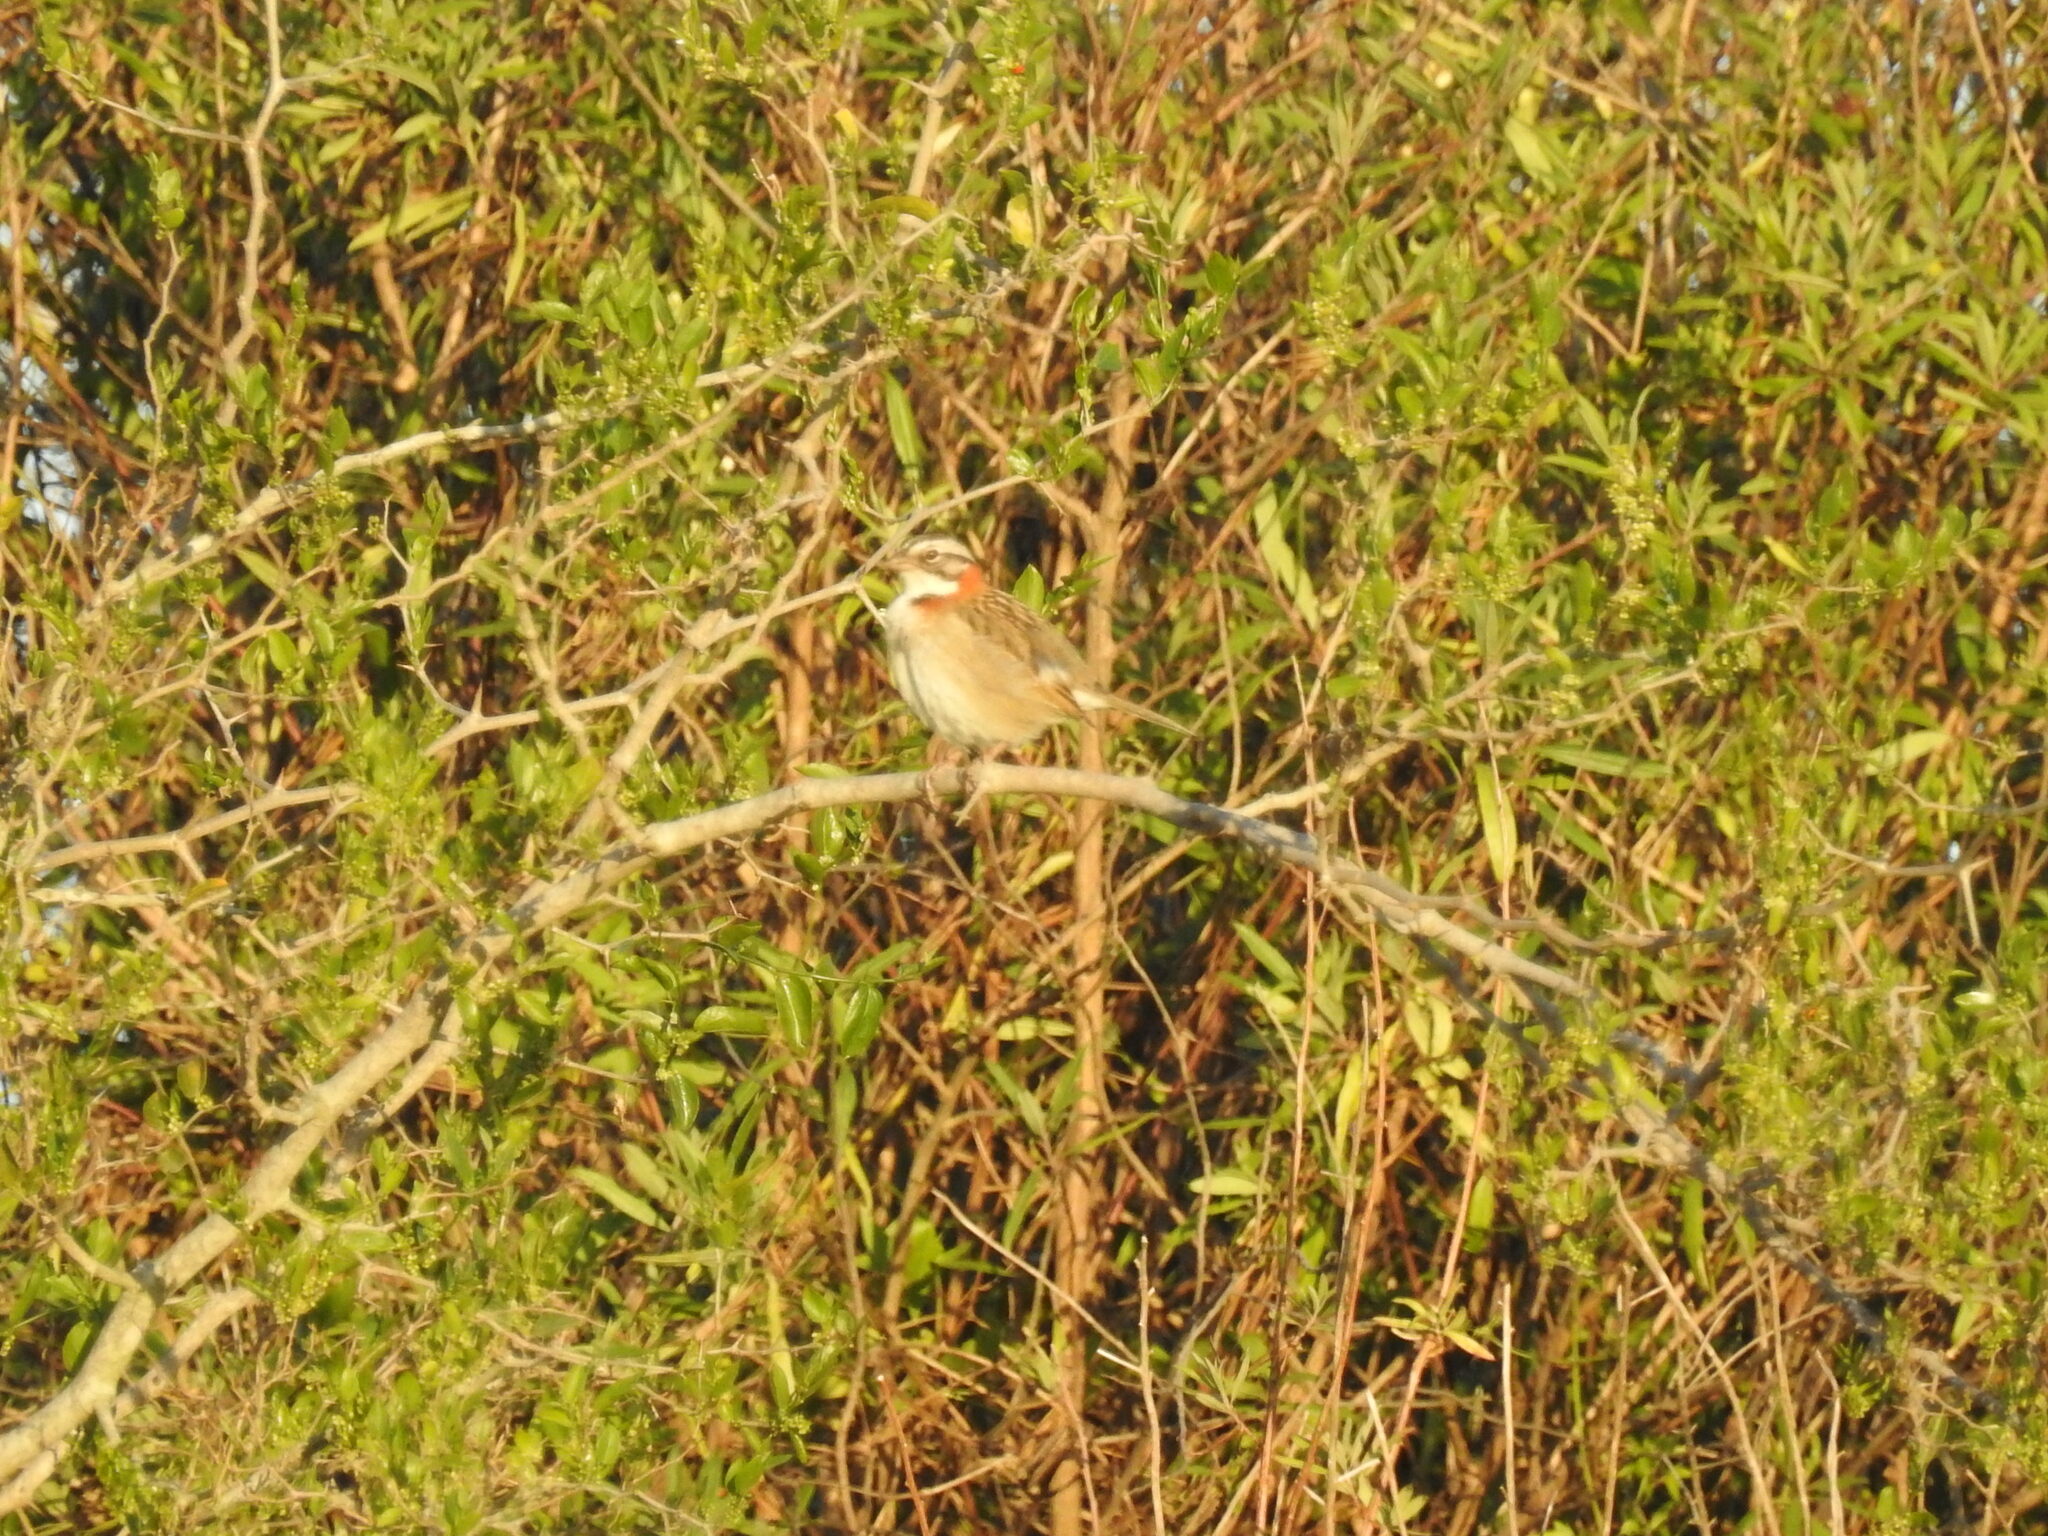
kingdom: Animalia
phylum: Chordata
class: Aves
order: Passeriformes
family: Passerellidae
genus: Zonotrichia
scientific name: Zonotrichia capensis
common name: Rufous-collared sparrow
